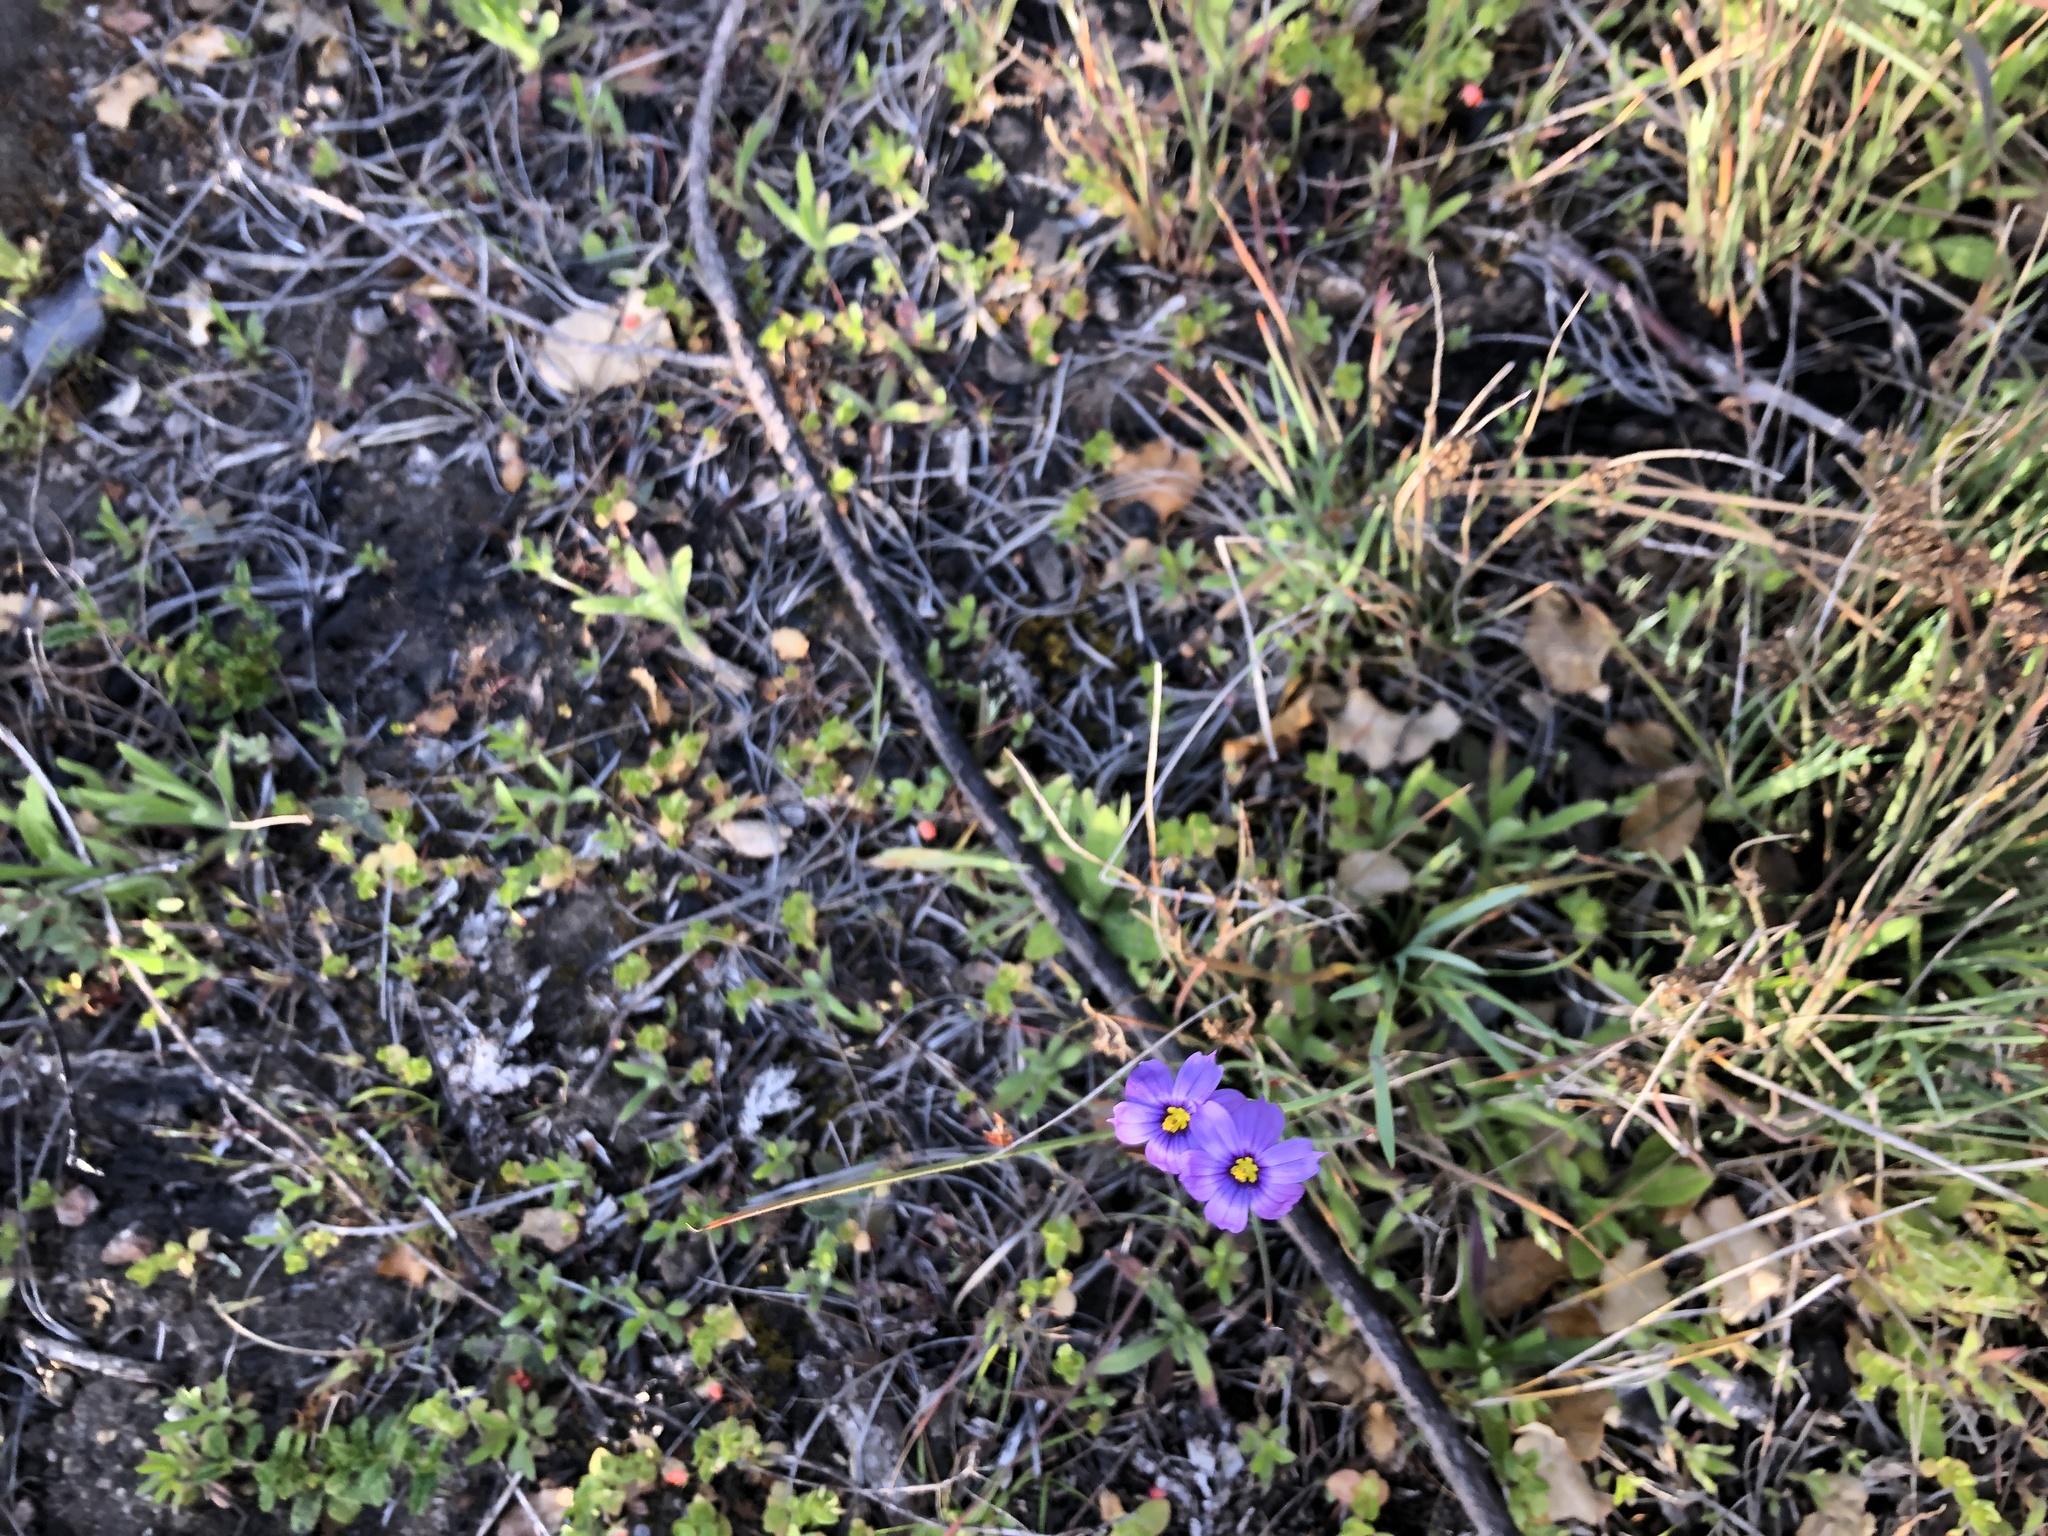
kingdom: Plantae
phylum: Tracheophyta
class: Liliopsida
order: Asparagales
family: Iridaceae
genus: Sisyrinchium
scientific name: Sisyrinchium bellum
